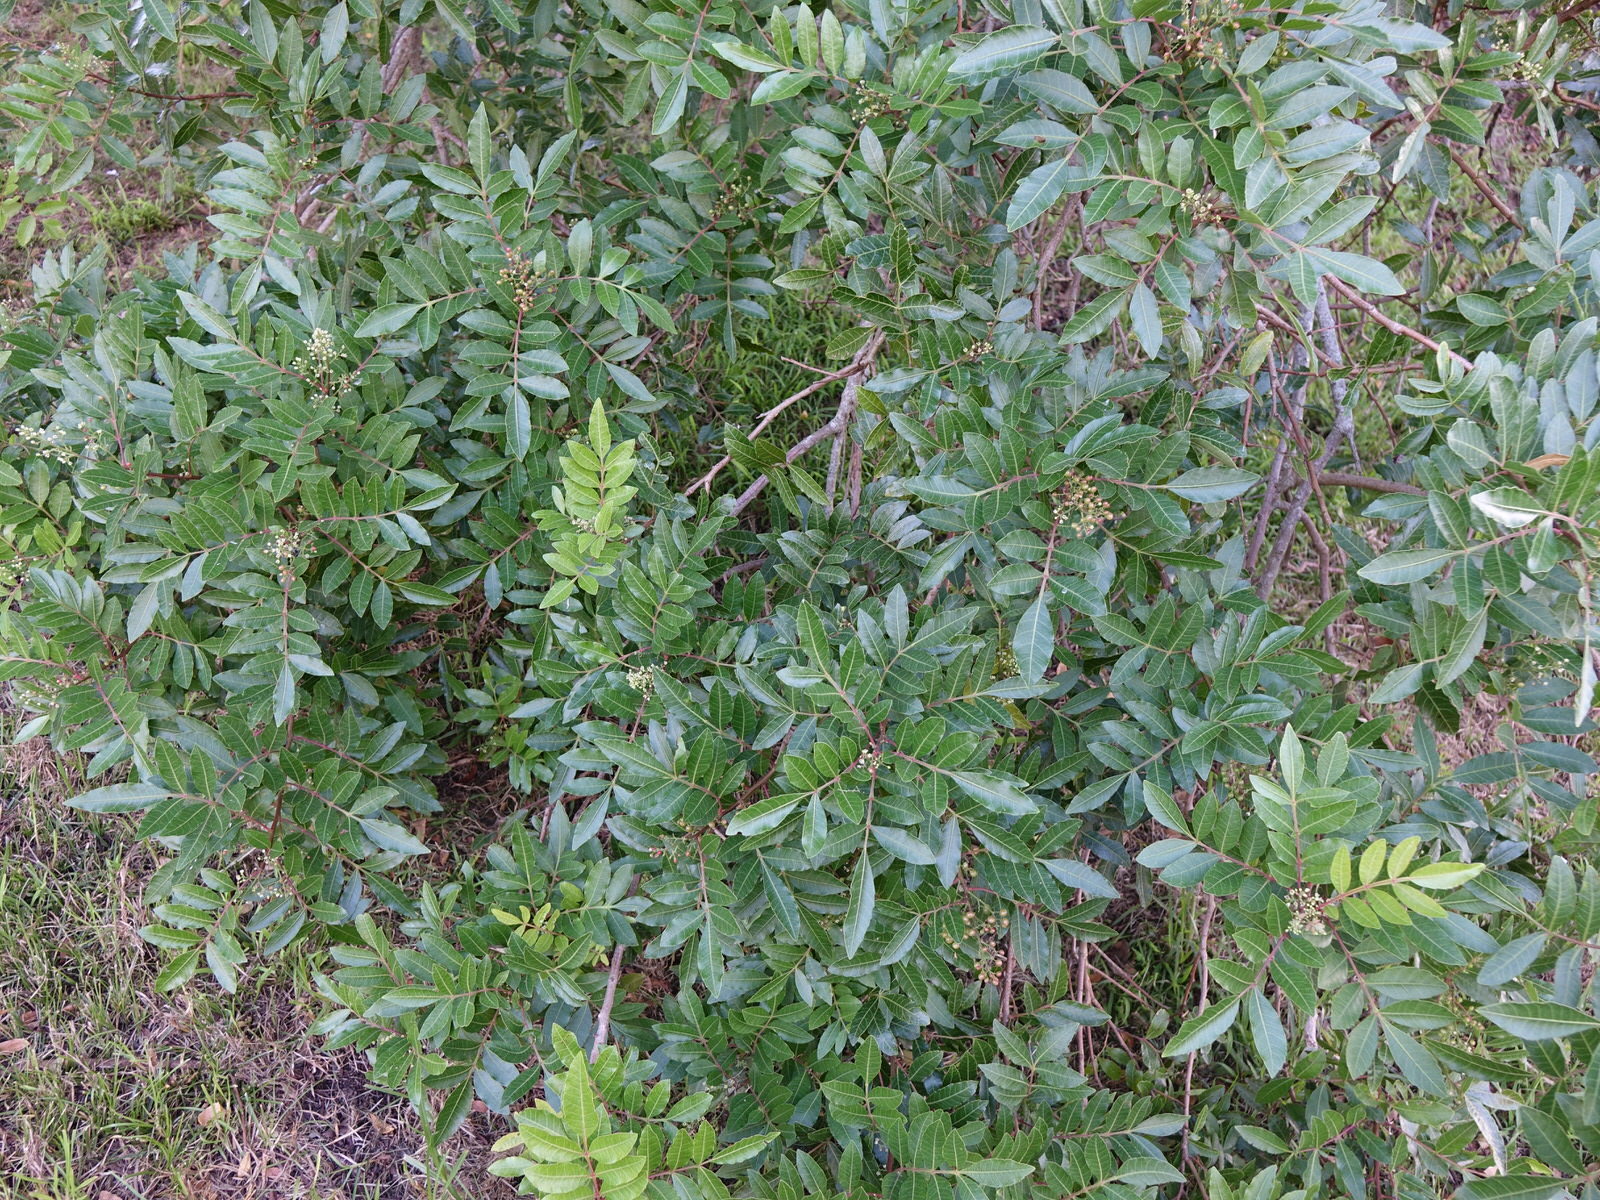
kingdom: Plantae
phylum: Tracheophyta
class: Magnoliopsida
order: Sapindales
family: Anacardiaceae
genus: Schinus
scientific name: Schinus terebinthifolia
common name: Brazilian peppertree
